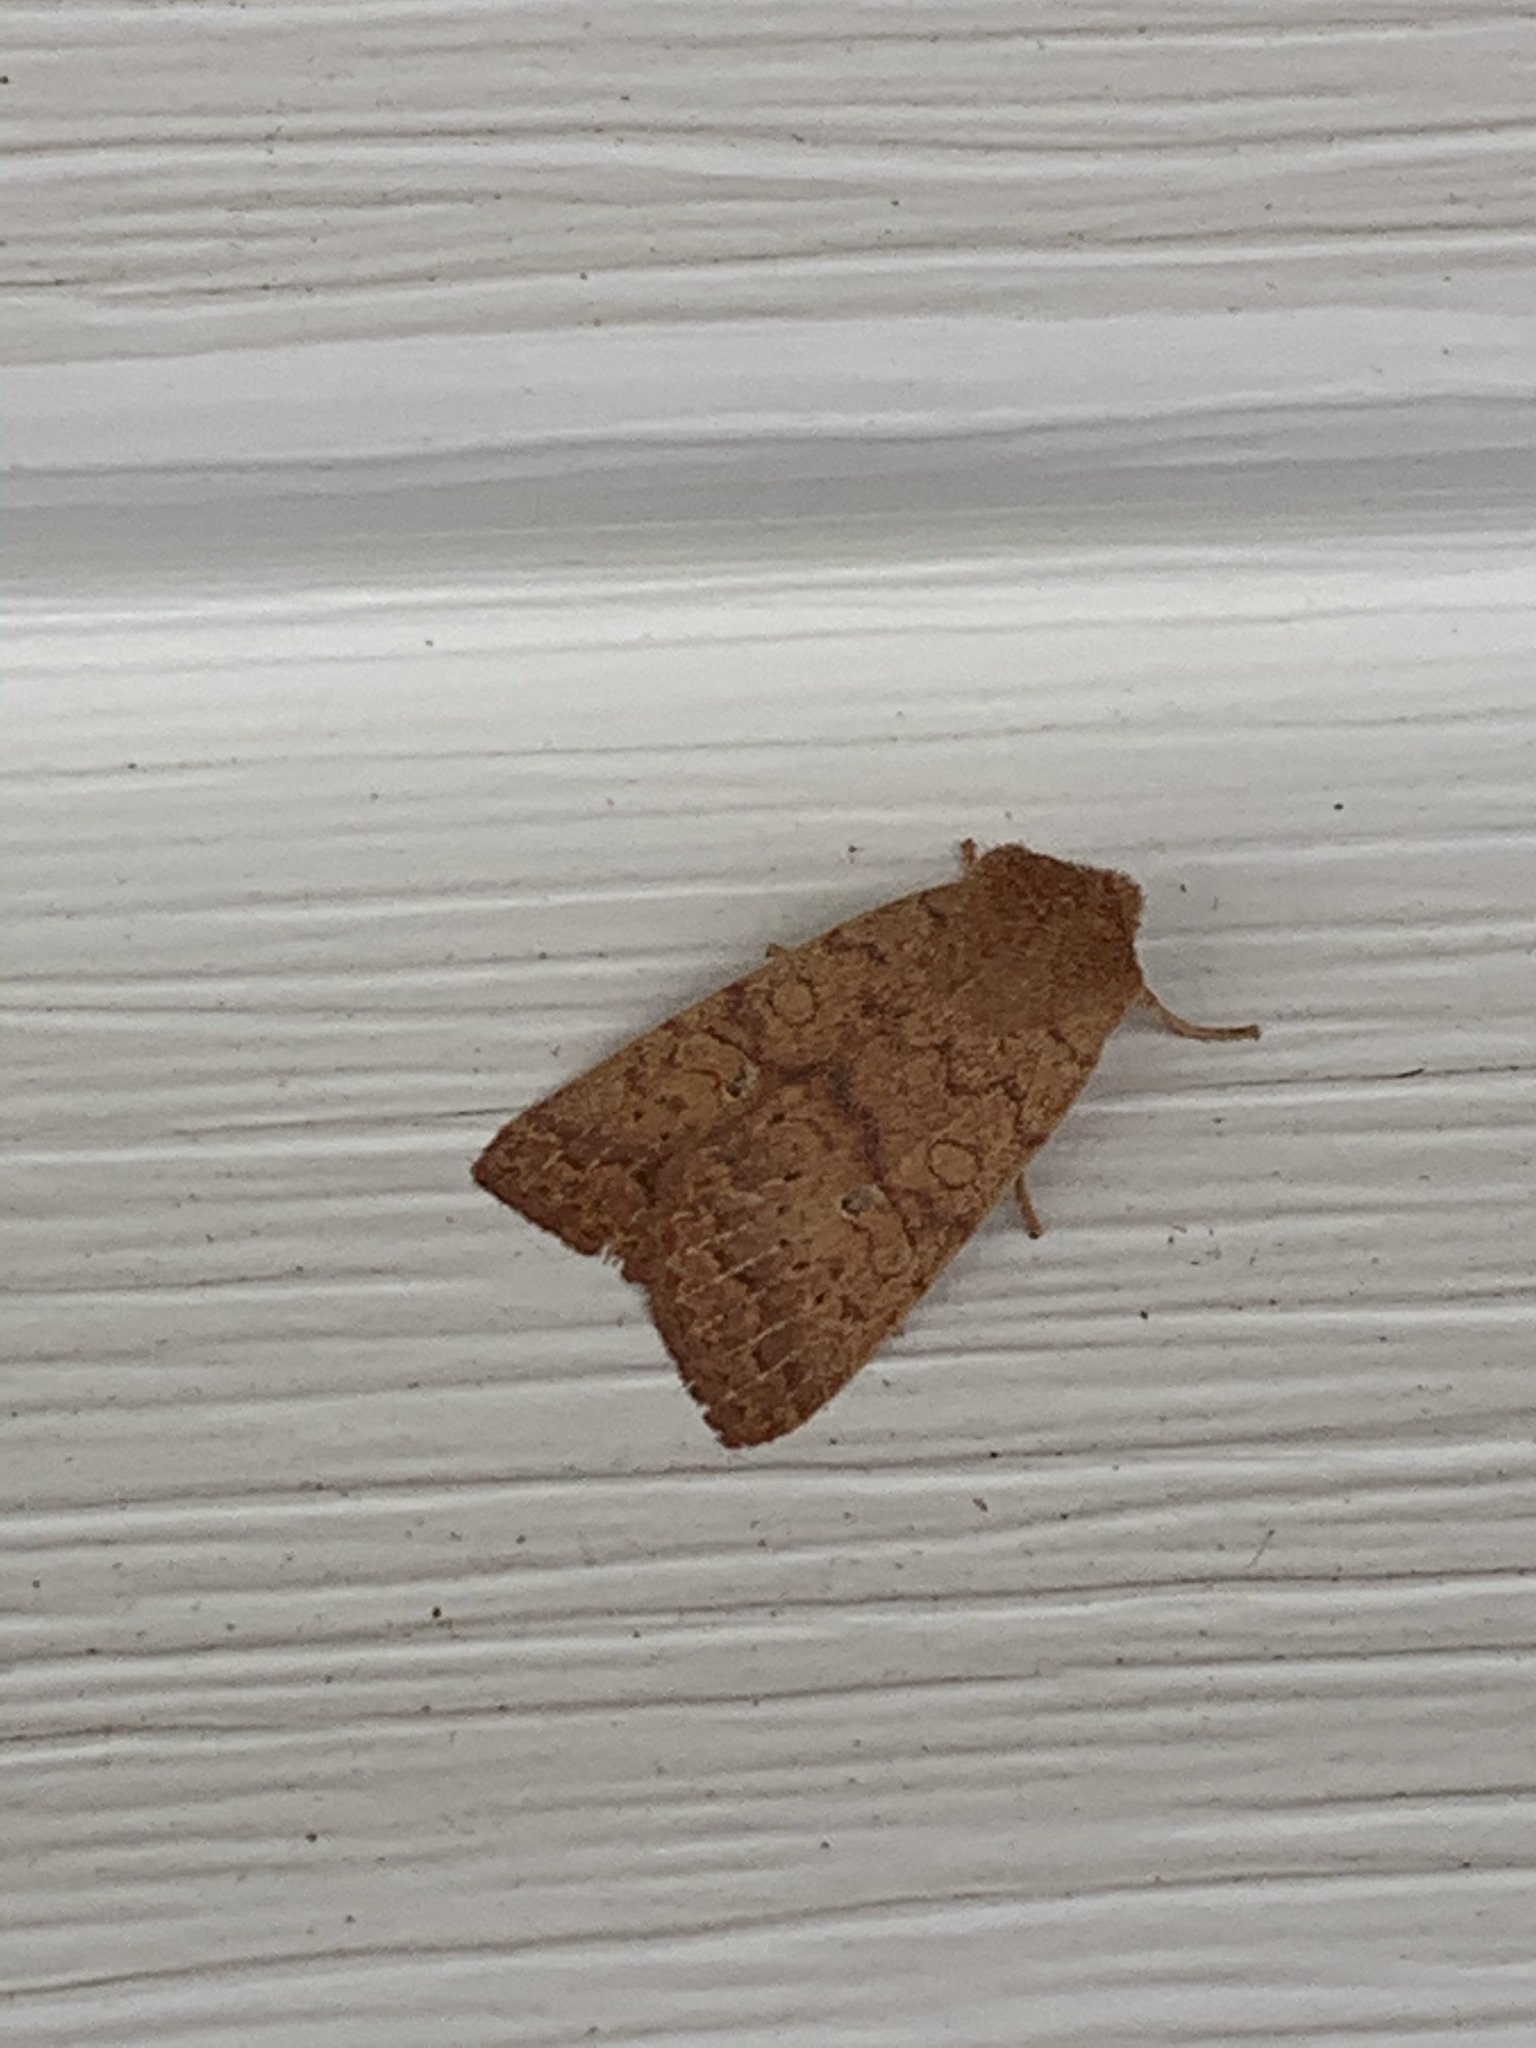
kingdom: Animalia
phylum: Arthropoda
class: Insecta
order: Lepidoptera
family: Noctuidae
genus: Agrochola
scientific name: Agrochola bicolorago
